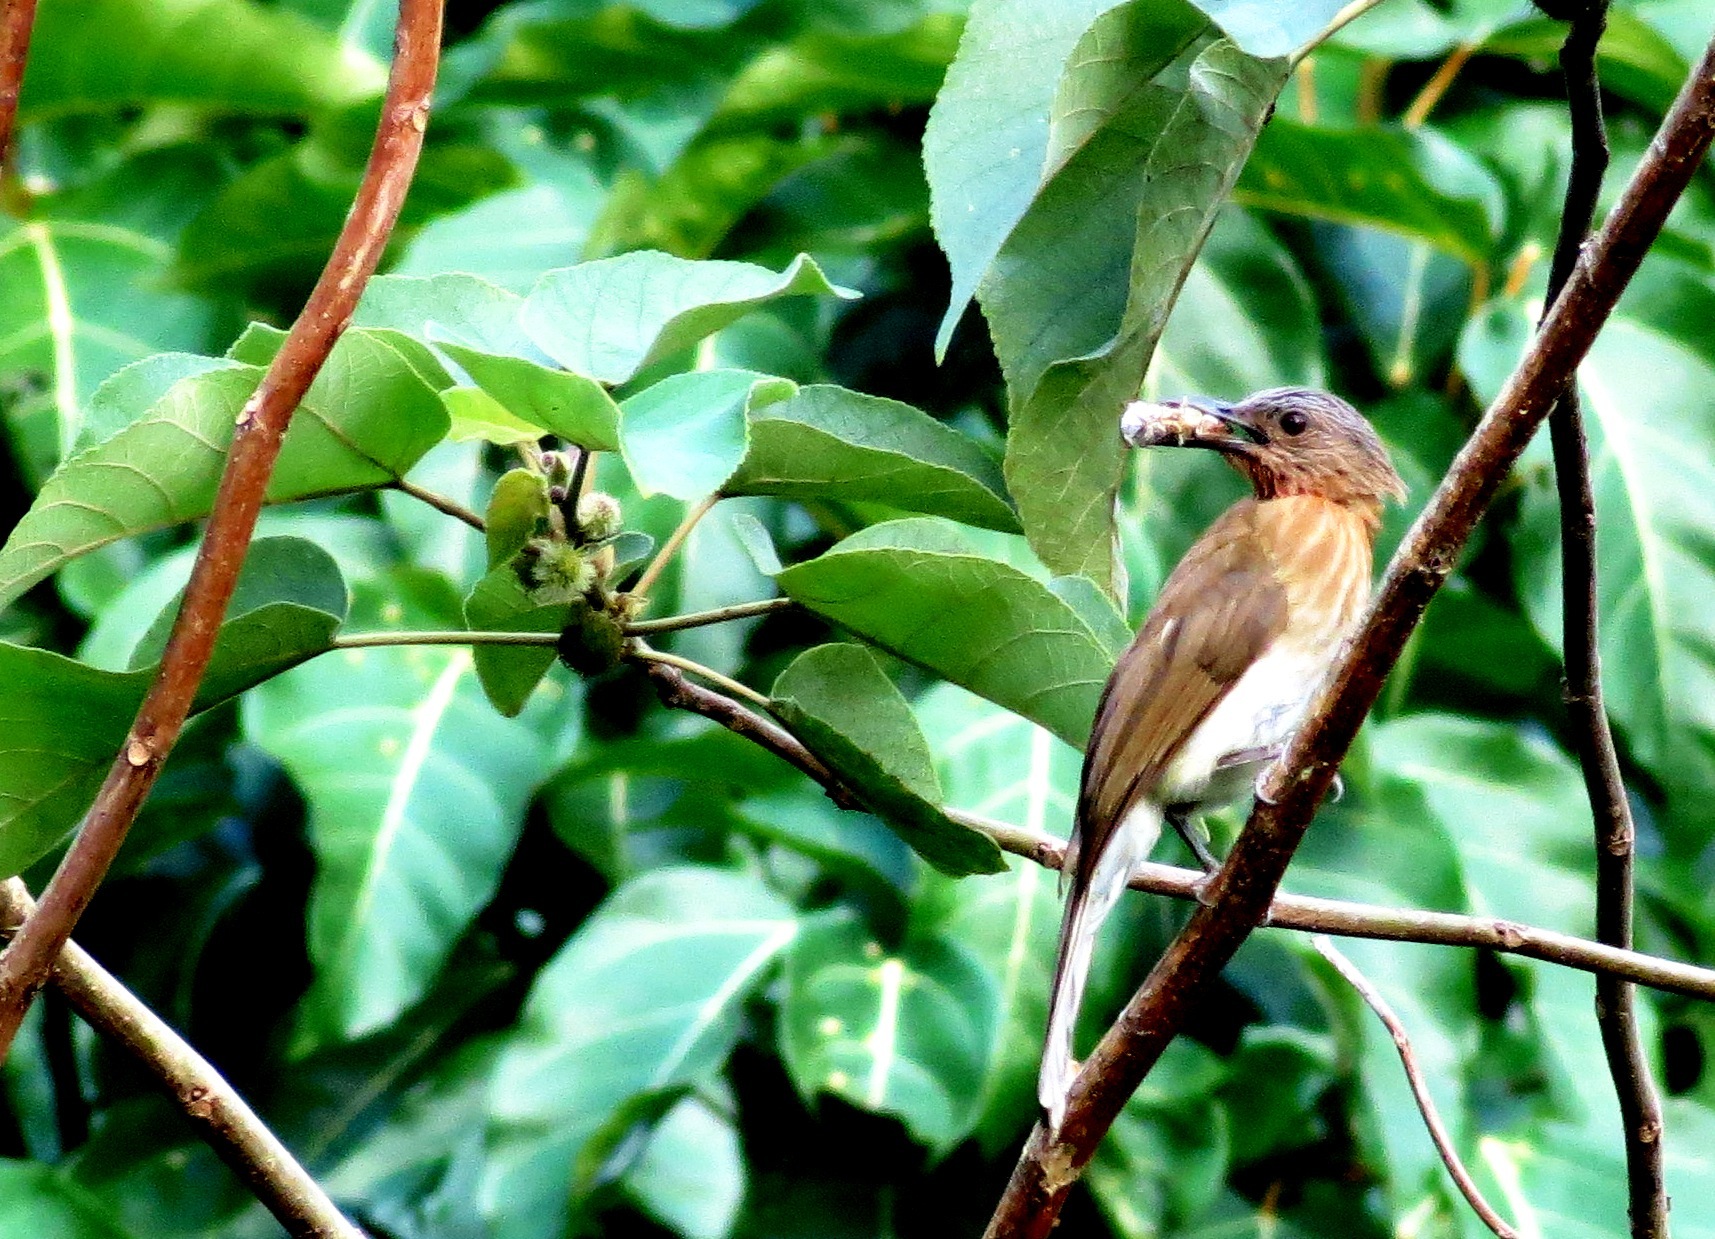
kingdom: Animalia
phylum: Chordata
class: Aves
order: Passeriformes
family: Pycnonotidae
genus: Hypsipetes
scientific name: Hypsipetes philippinus
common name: Philippine bulbul
